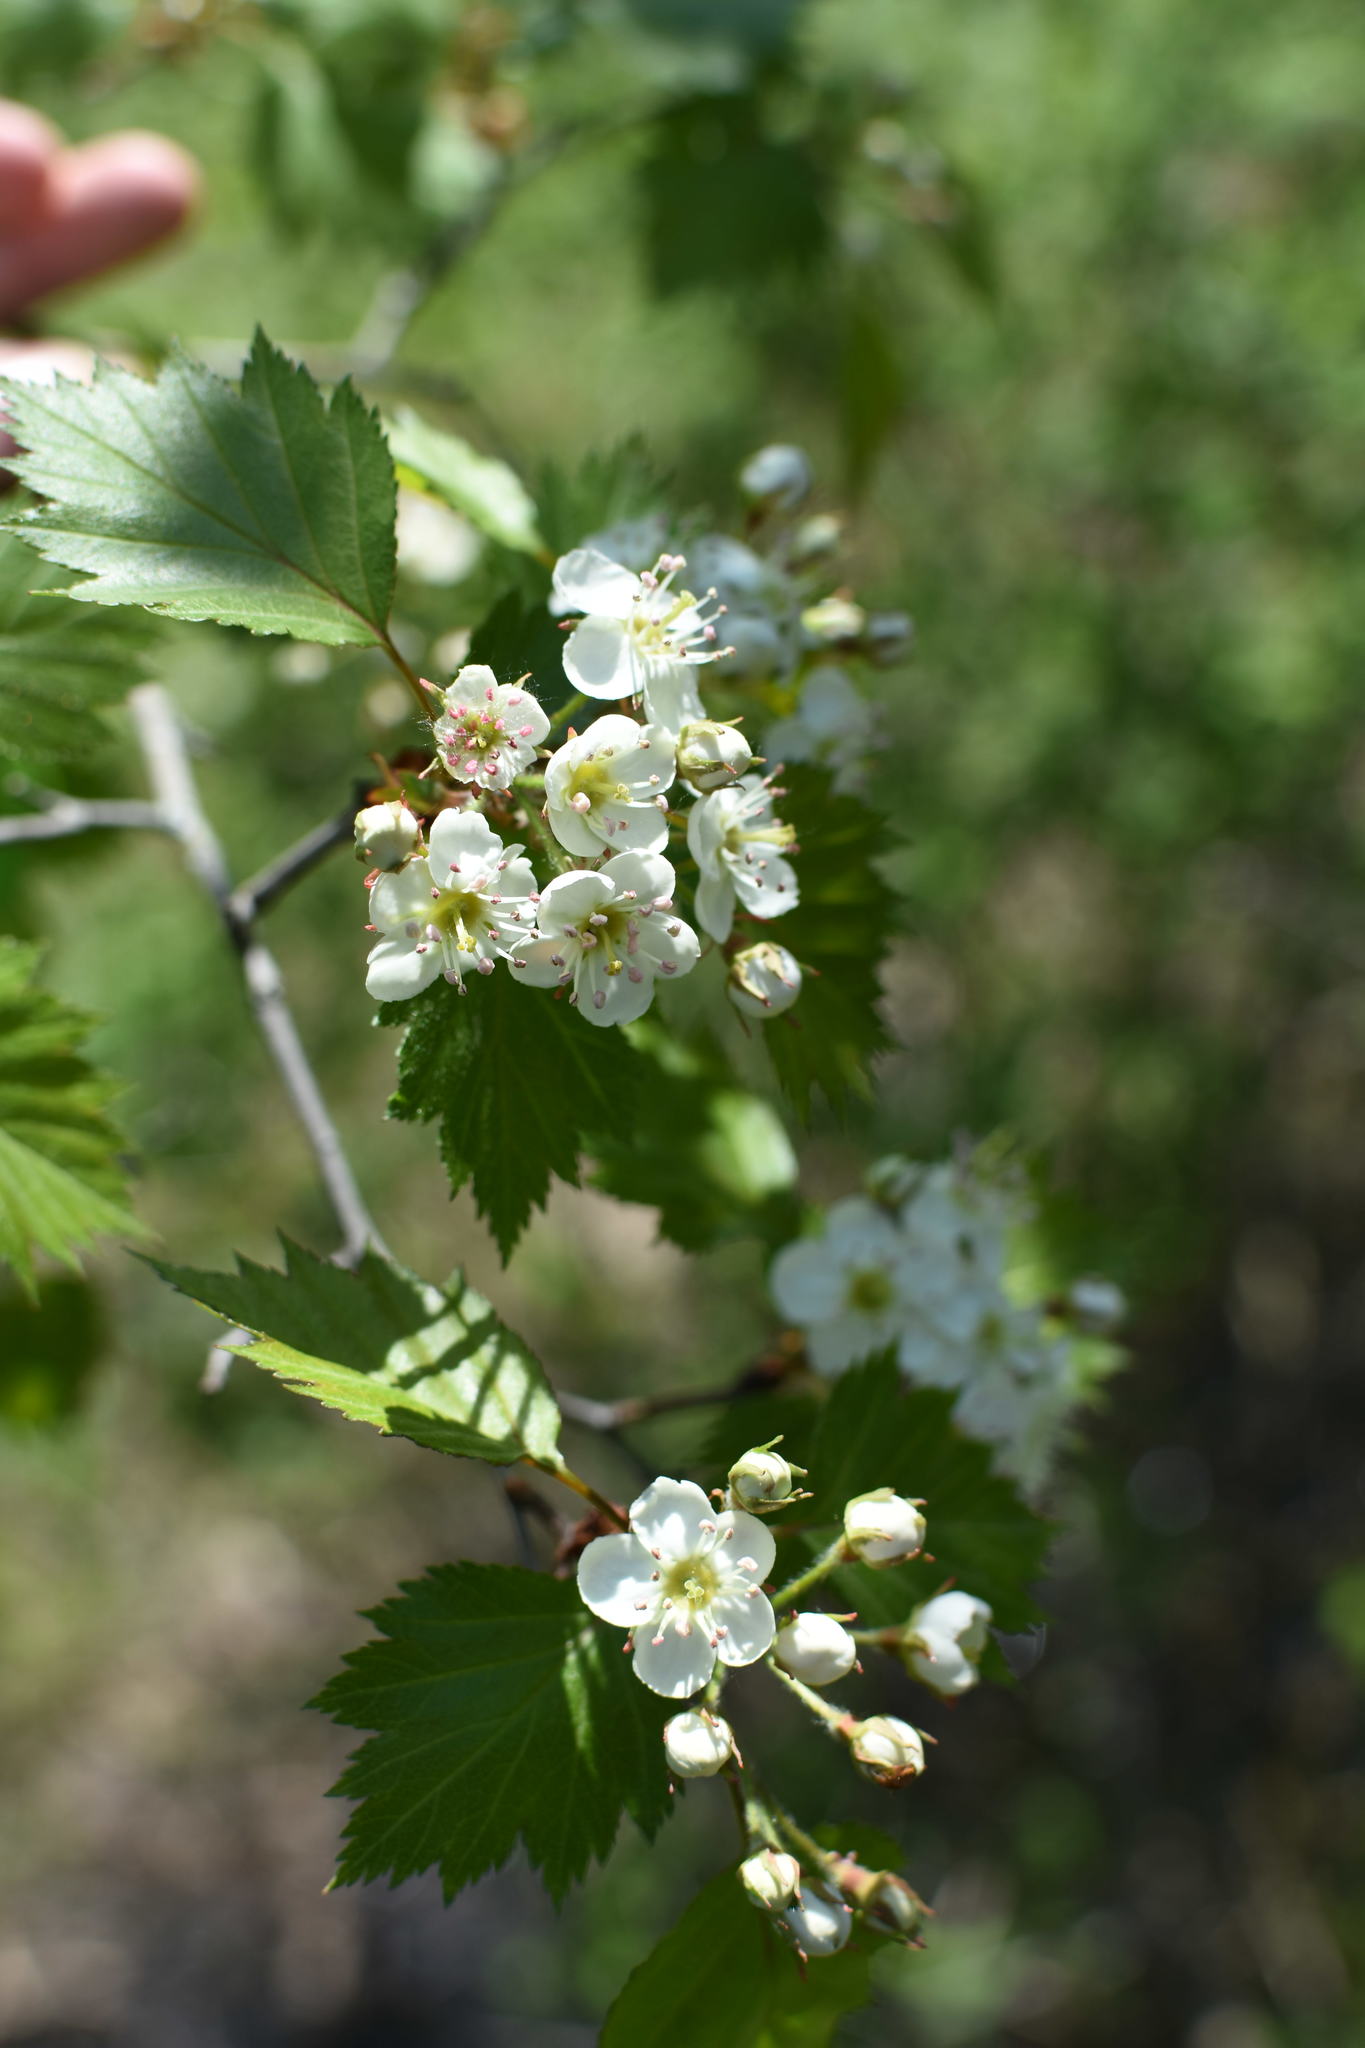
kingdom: Plantae
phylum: Tracheophyta
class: Magnoliopsida
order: Rosales
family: Rosaceae
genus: Crataegus
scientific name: Crataegus flabellata
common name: Bosc's hawthorn
